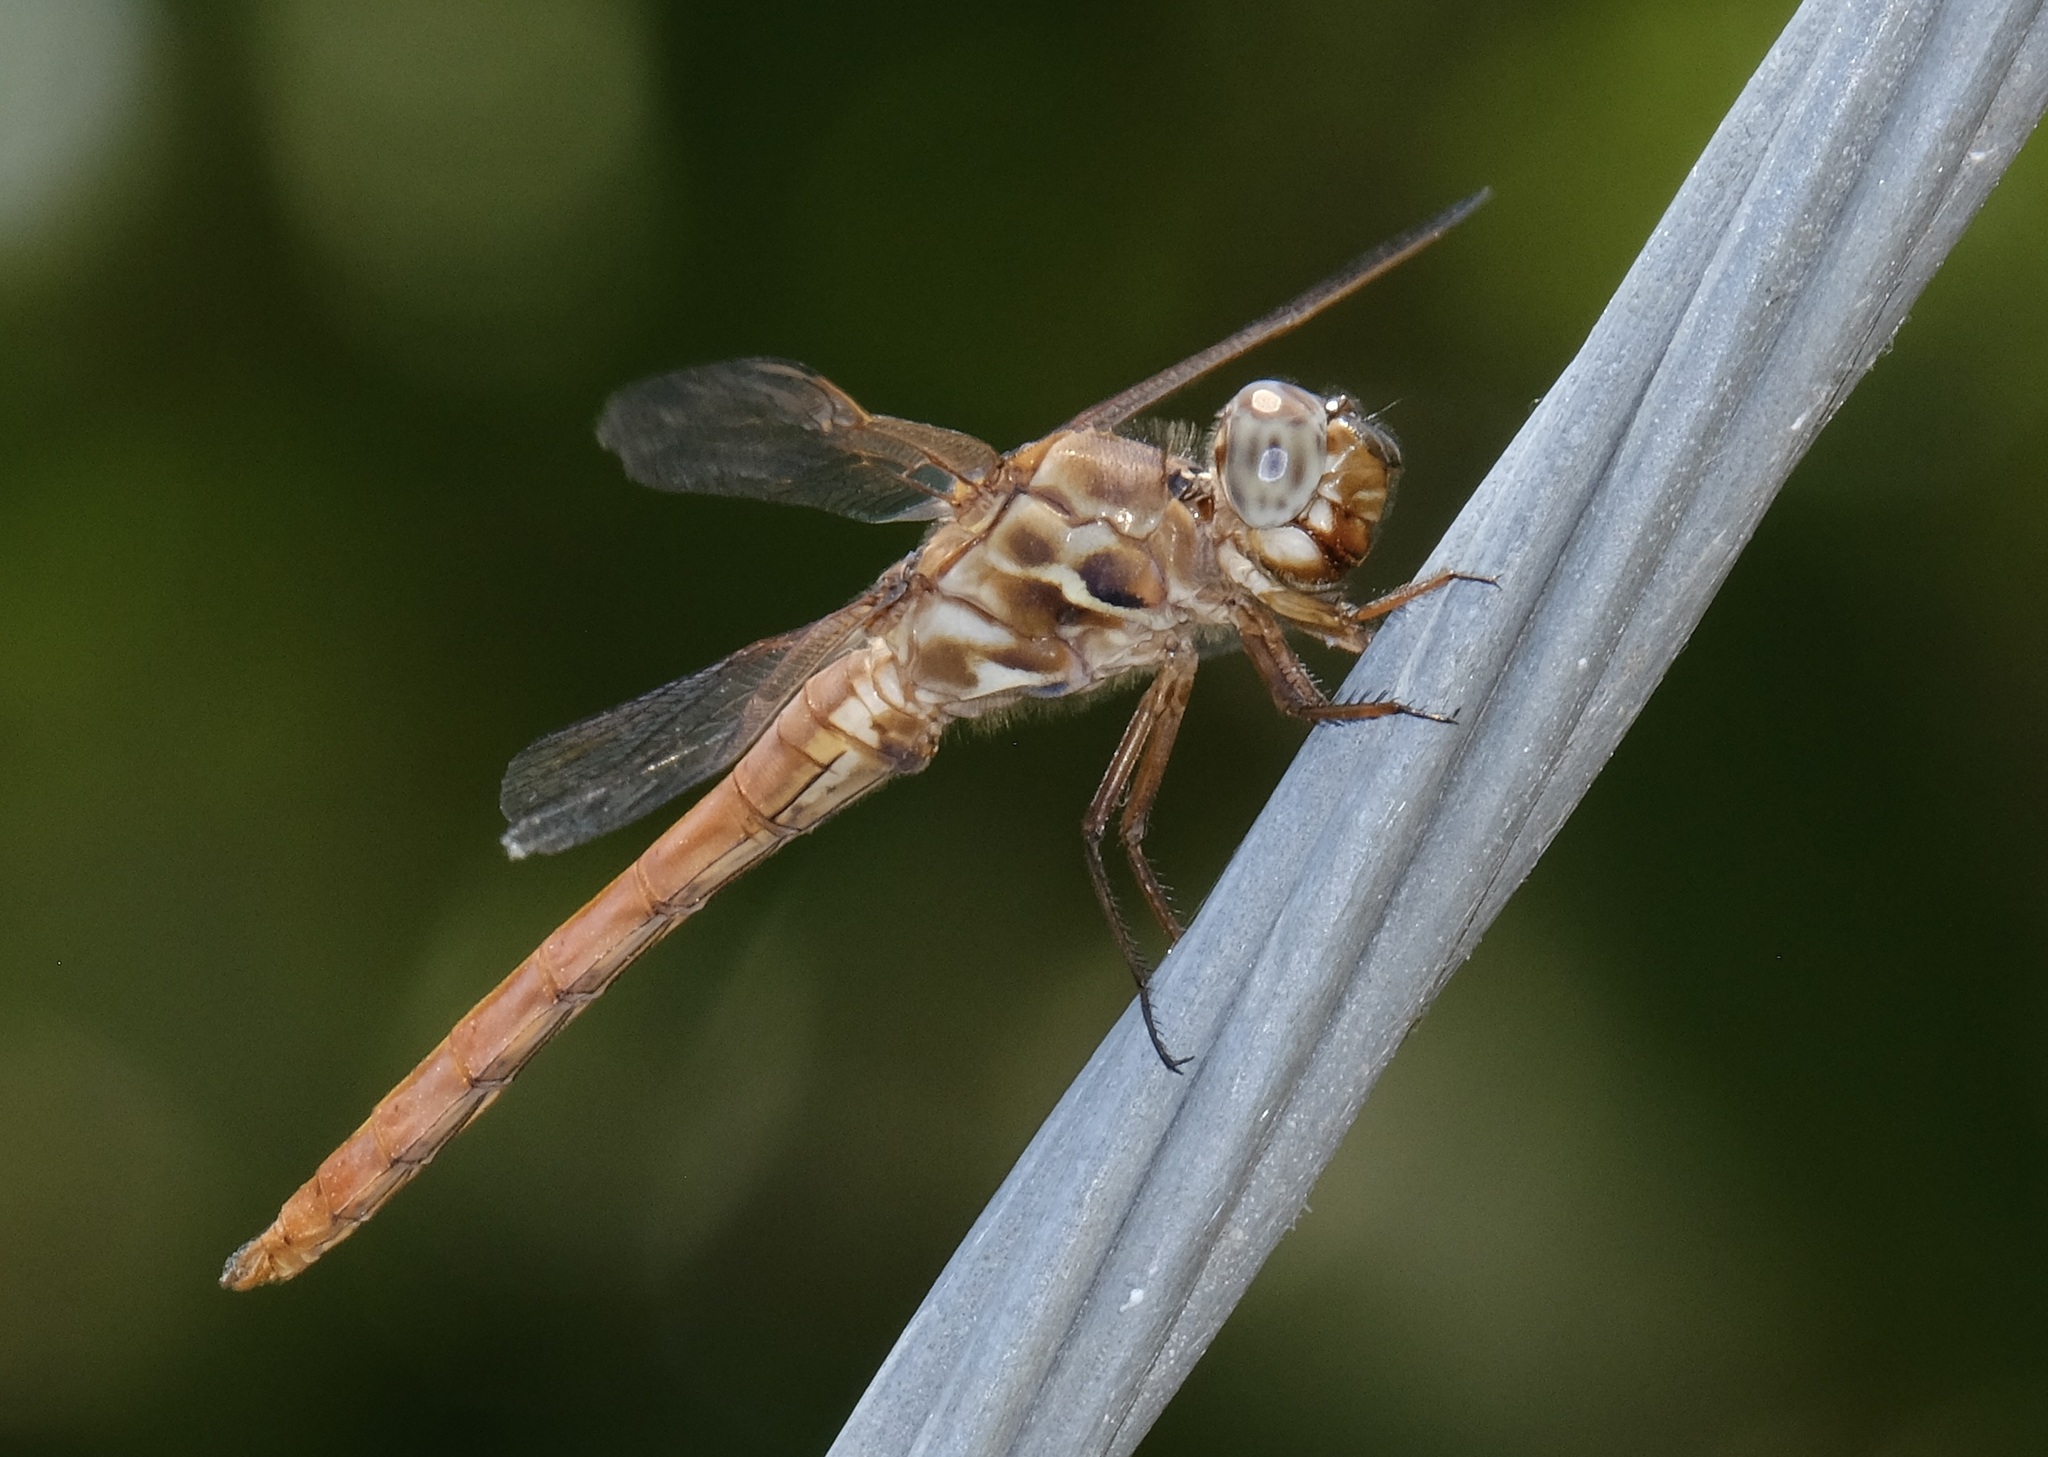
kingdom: Animalia
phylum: Arthropoda
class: Insecta
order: Odonata
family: Libellulidae
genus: Orthemis
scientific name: Orthemis ferruginea
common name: Roseate skimmer
